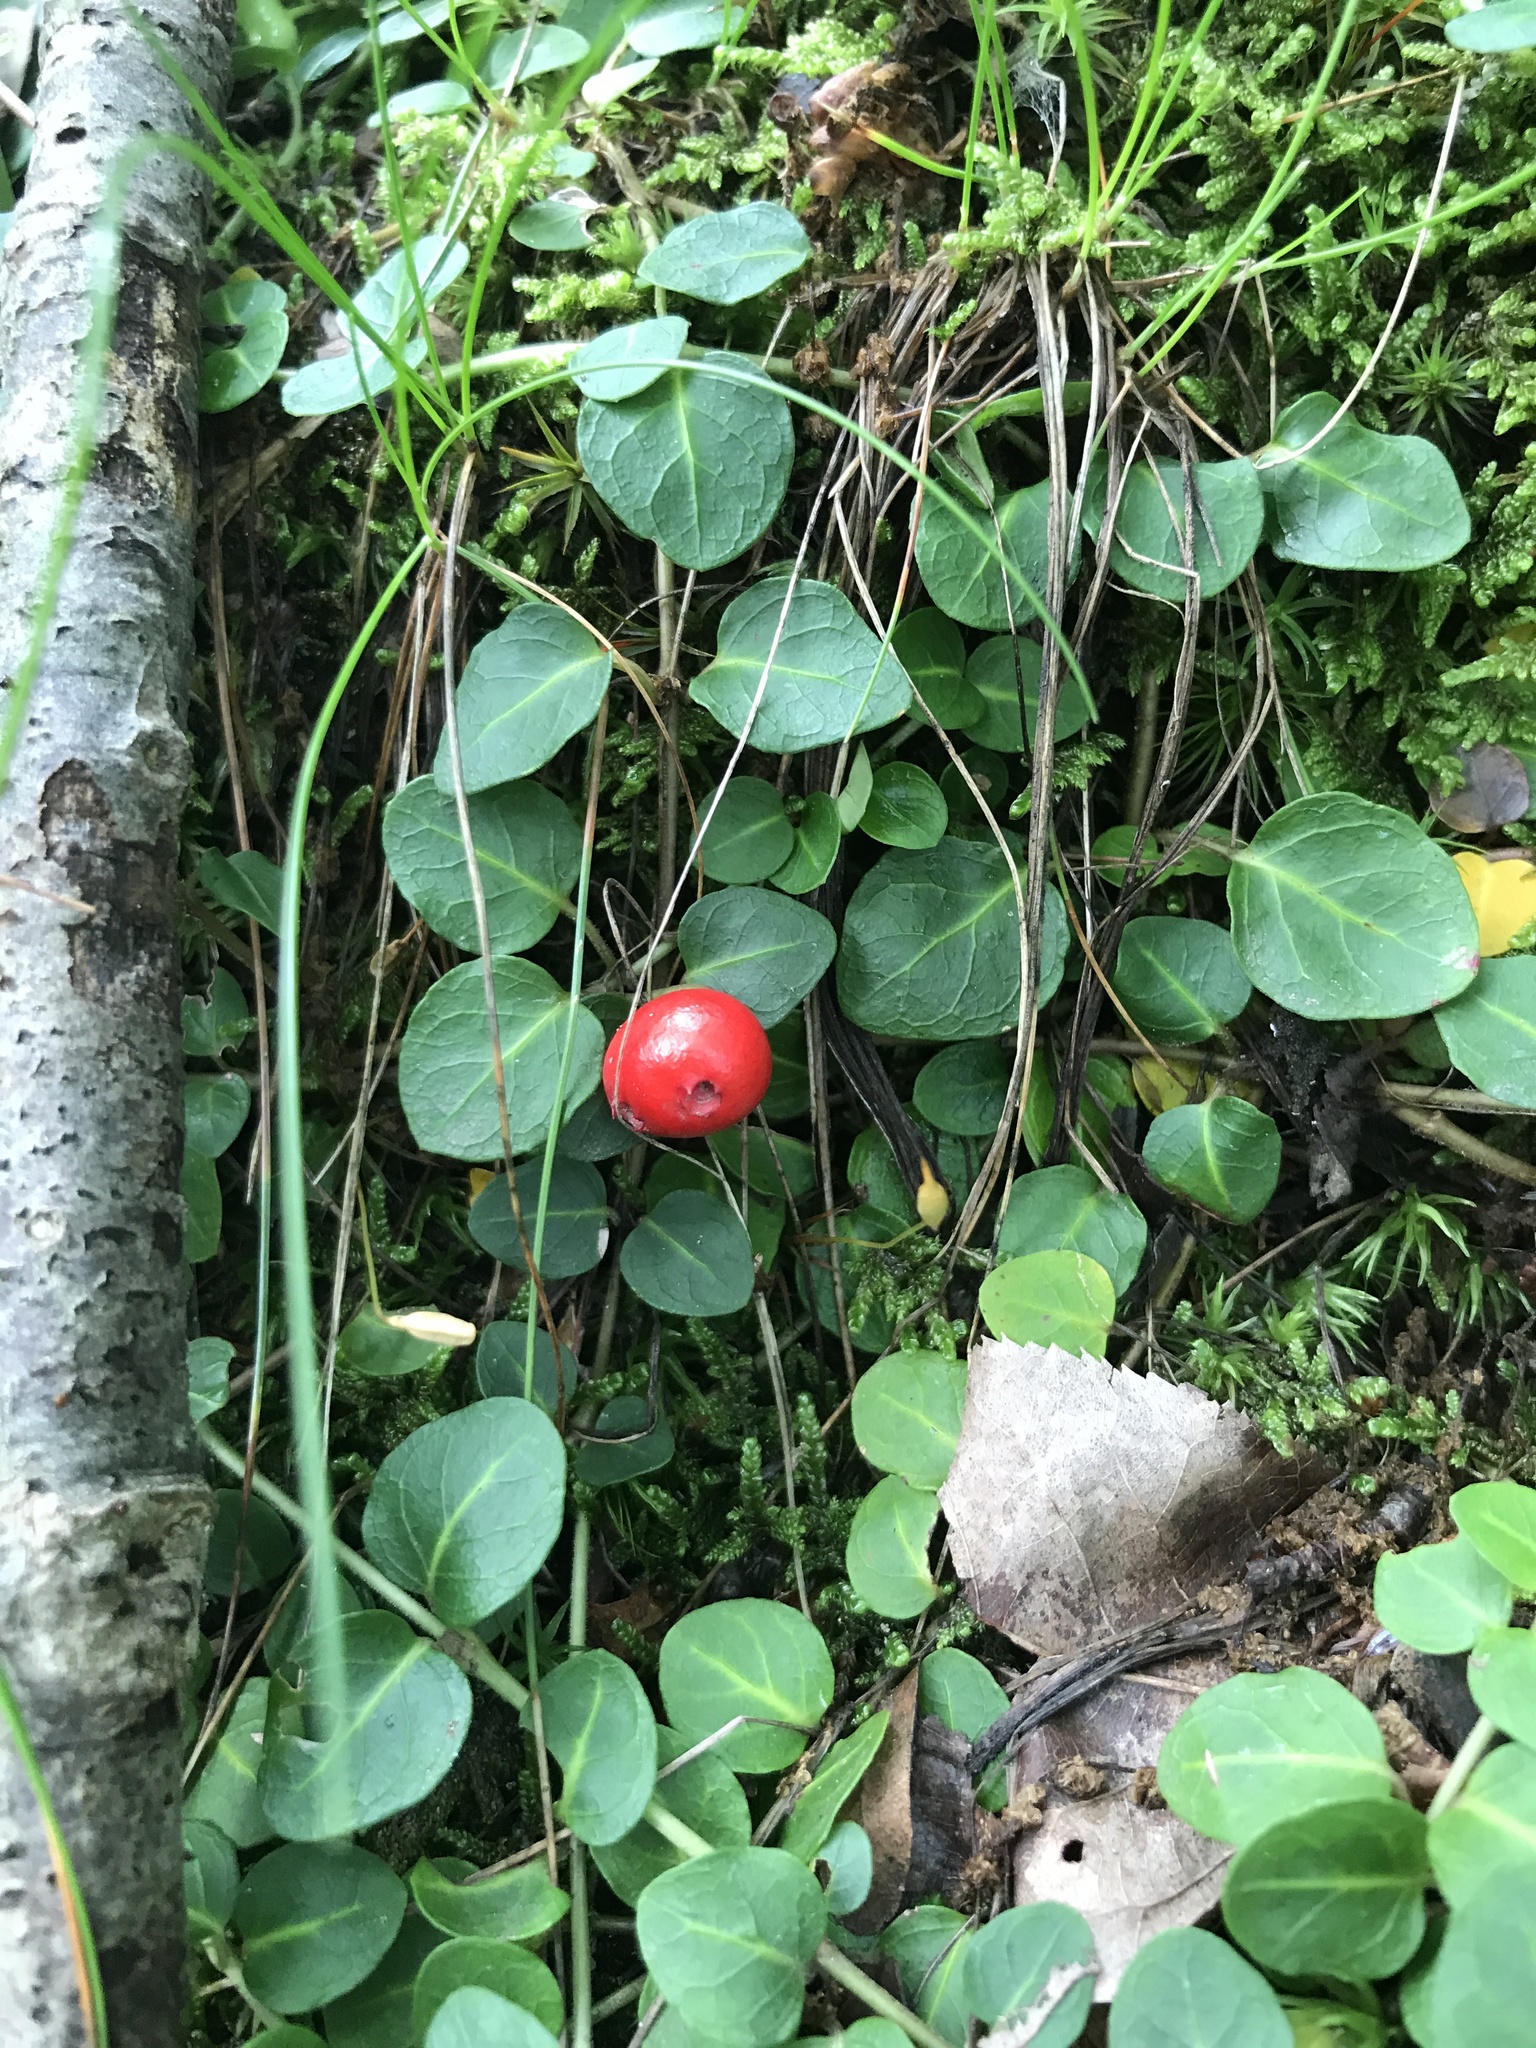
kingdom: Plantae
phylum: Tracheophyta
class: Magnoliopsida
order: Gentianales
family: Rubiaceae
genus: Mitchella
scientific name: Mitchella repens
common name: Partridge-berry
